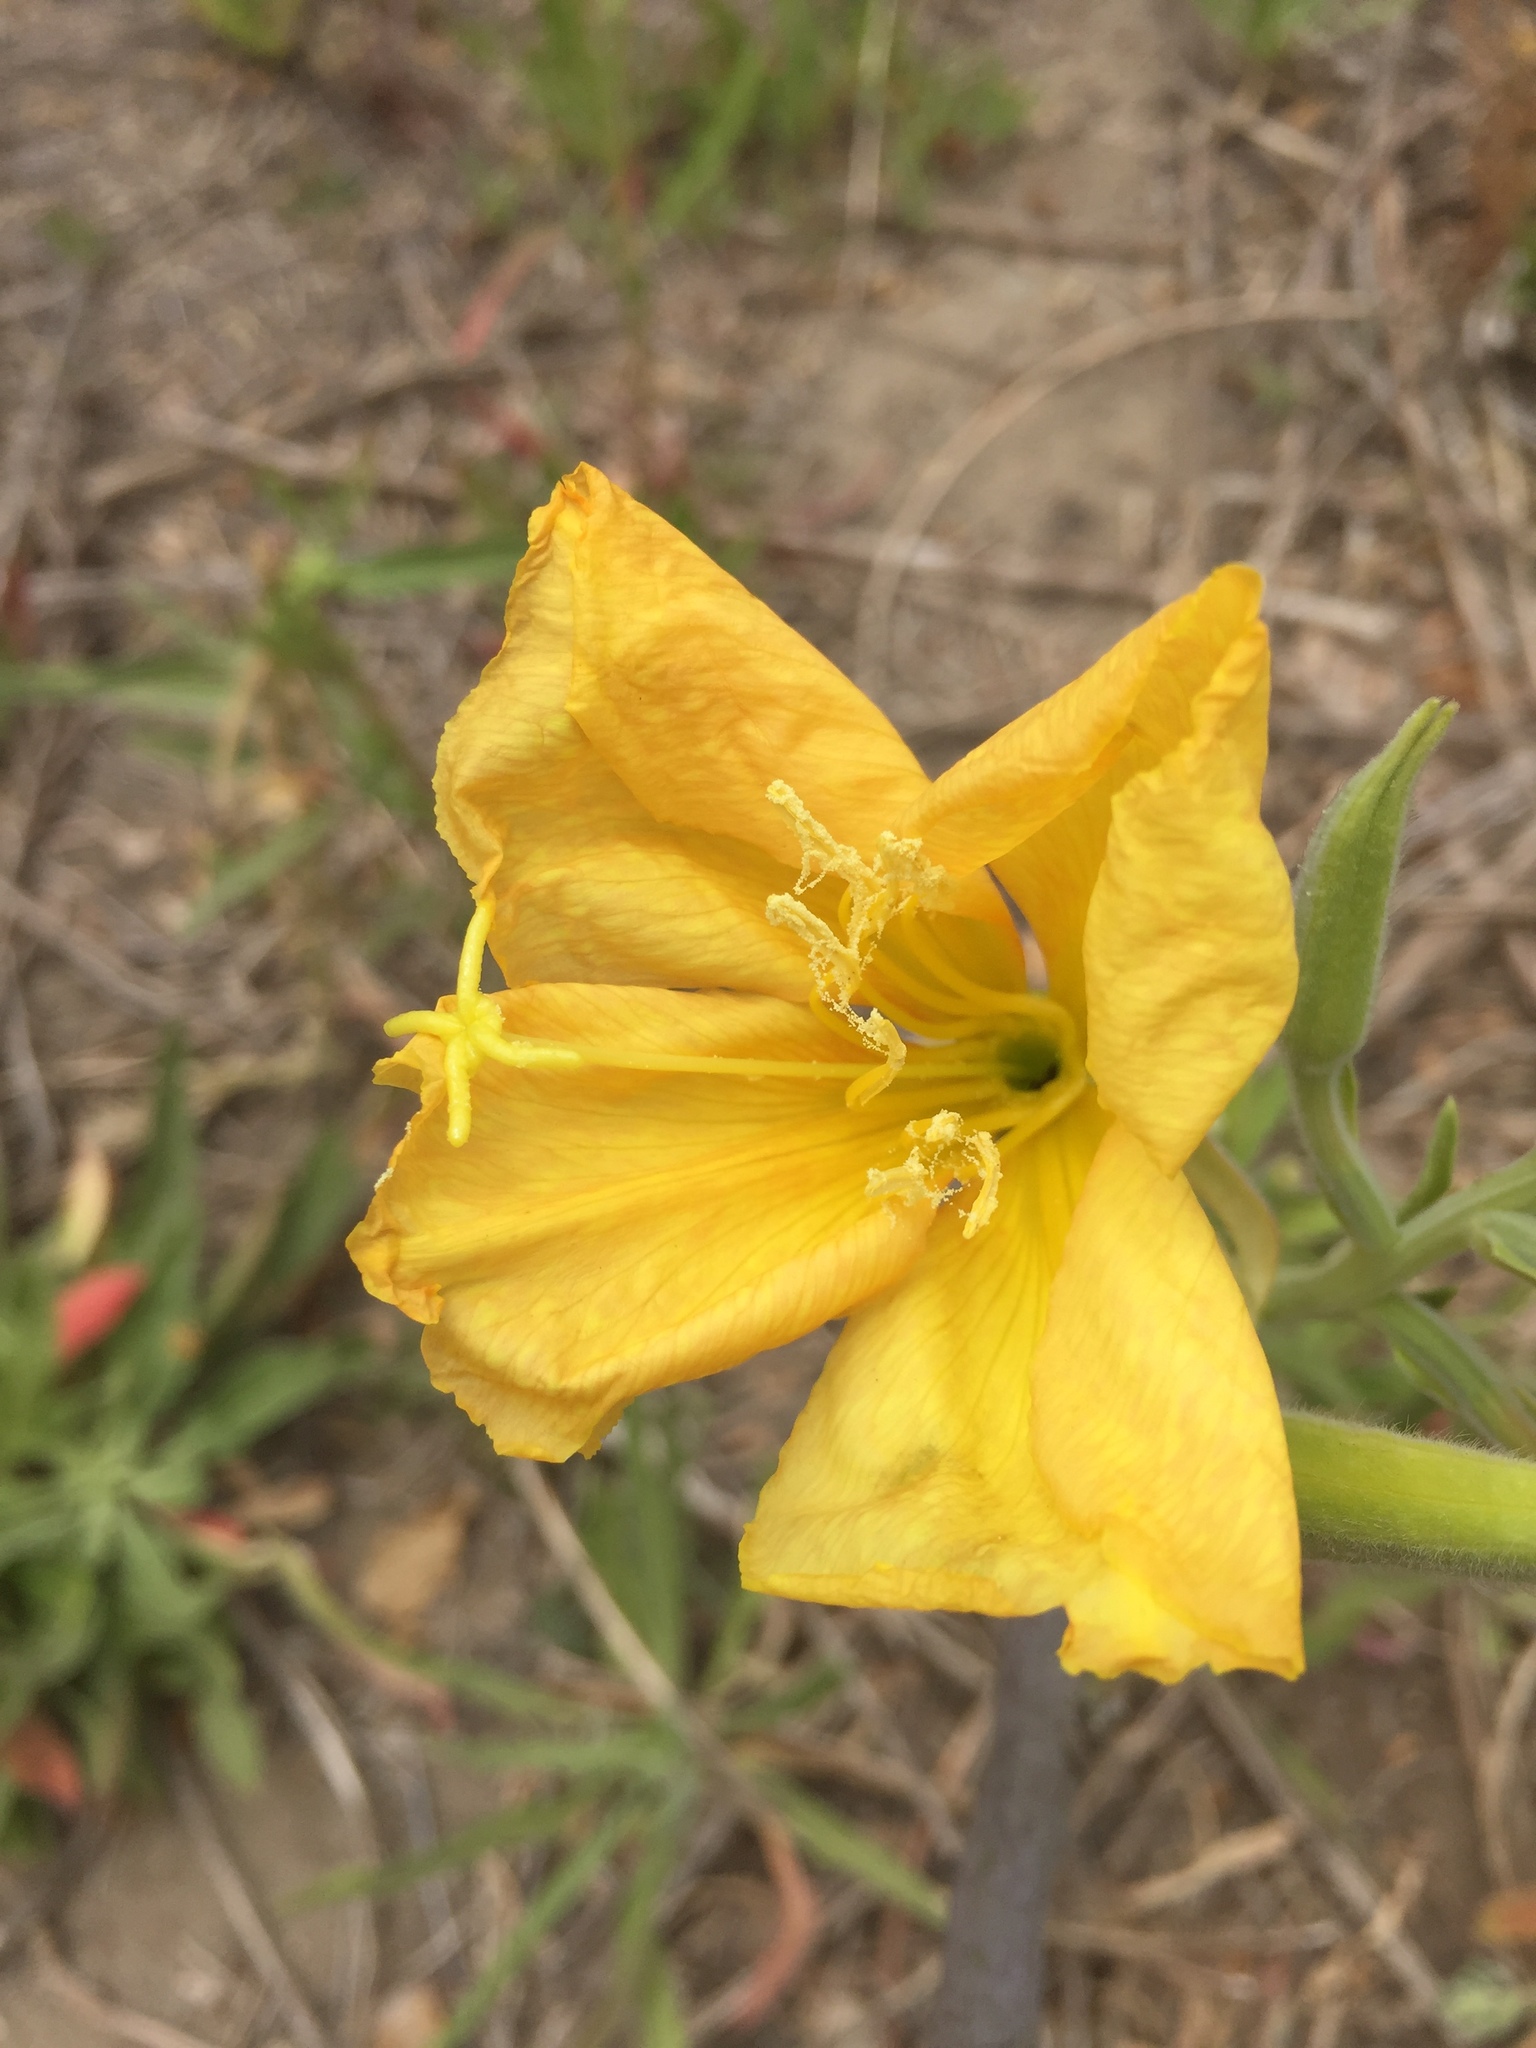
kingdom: Plantae
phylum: Tracheophyta
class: Magnoliopsida
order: Myrtales
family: Onagraceae
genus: Oenothera
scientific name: Oenothera elata
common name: Hooker's evening-primrose
